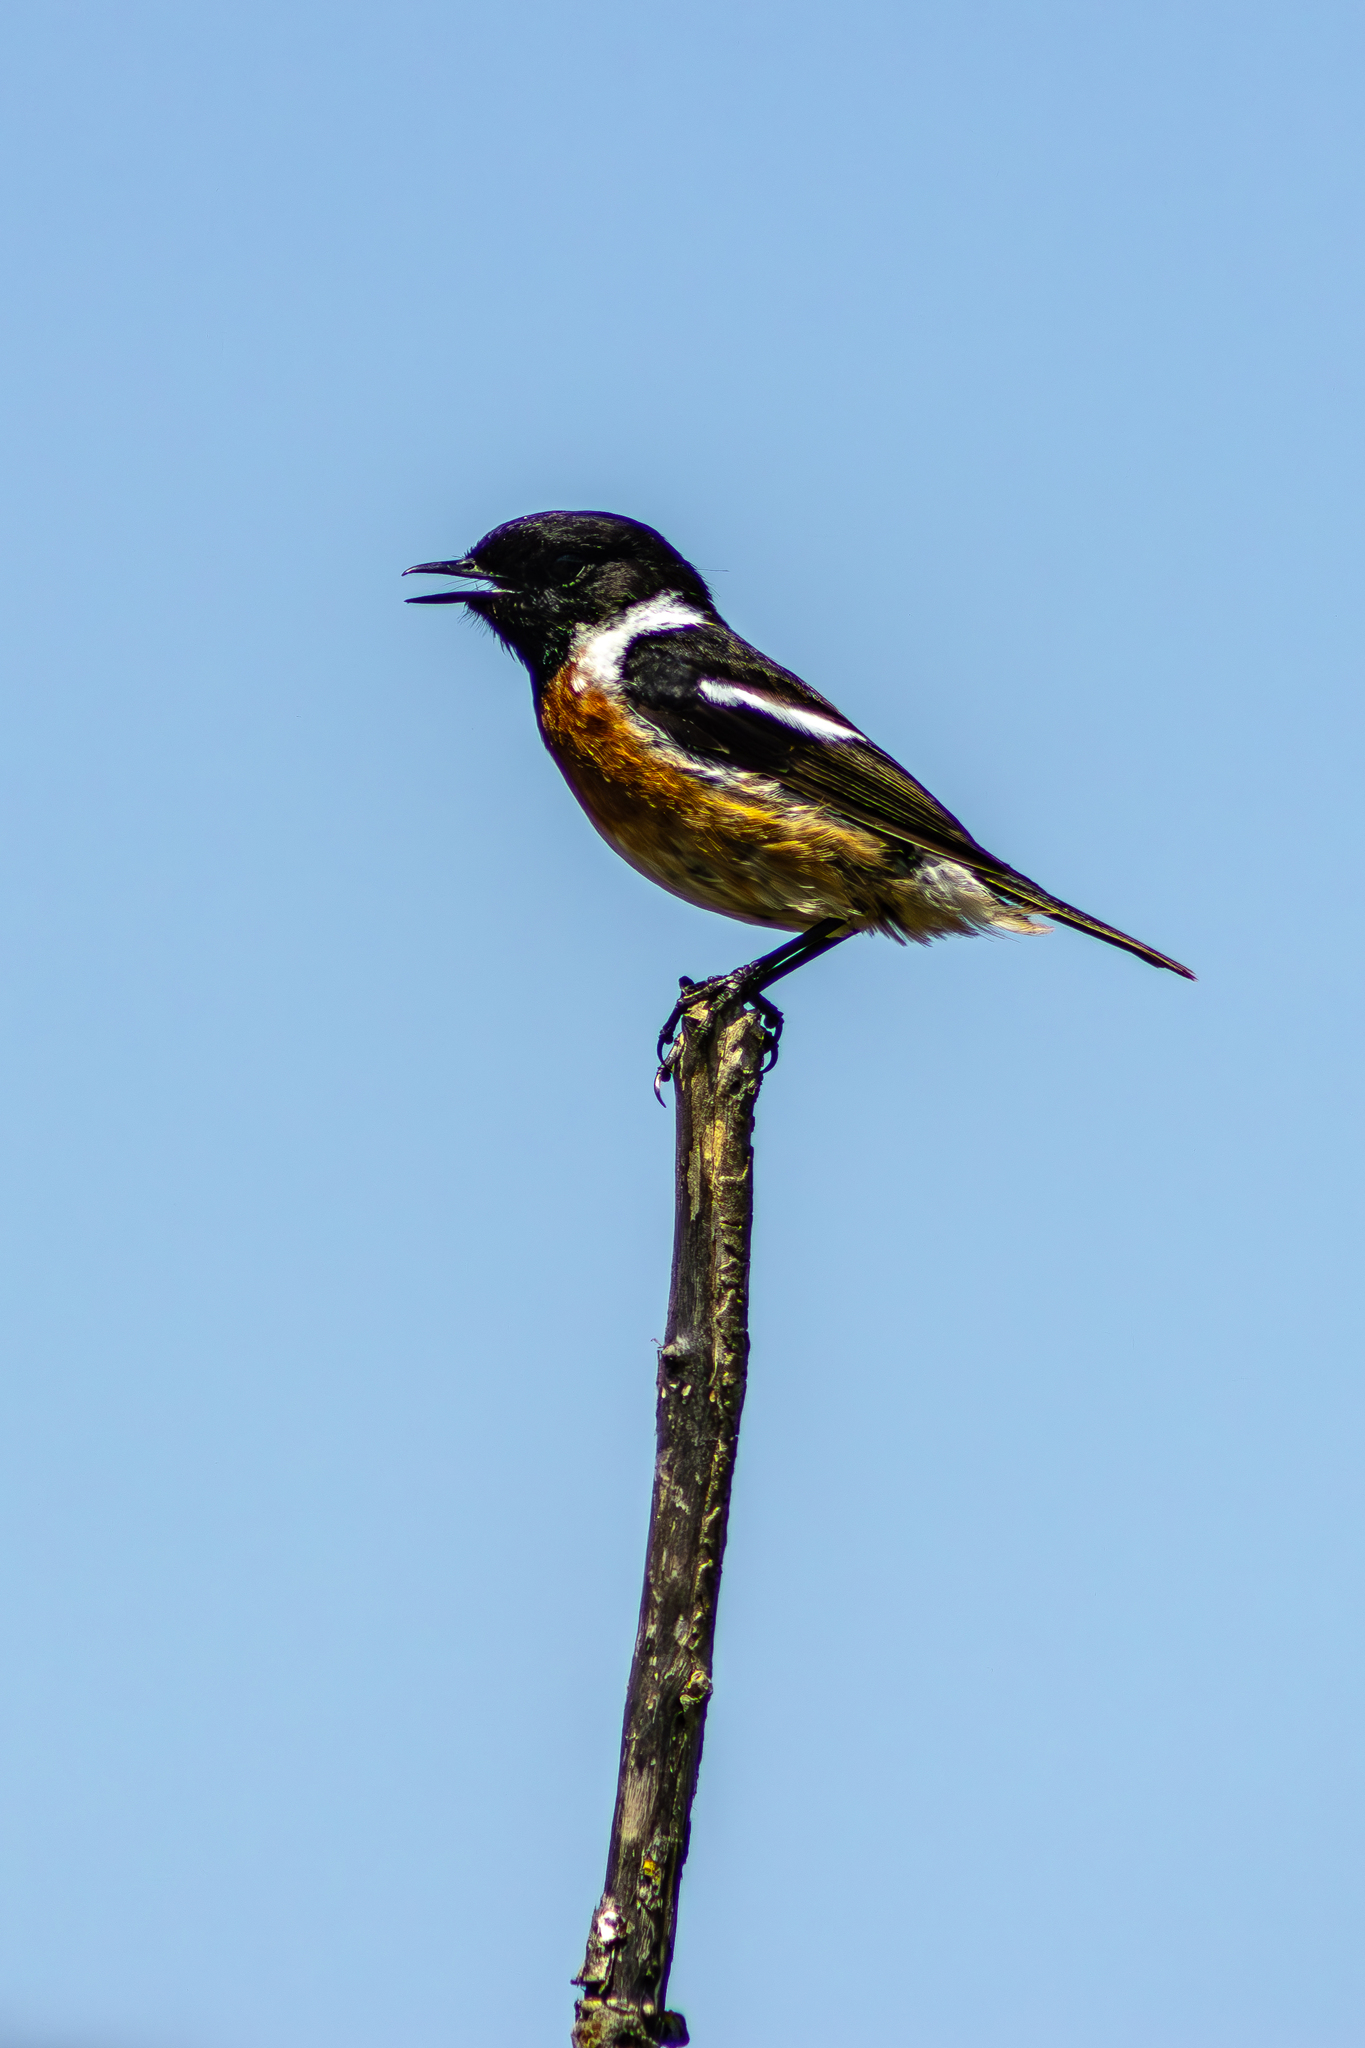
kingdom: Animalia
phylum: Chordata
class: Aves
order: Passeriformes
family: Muscicapidae
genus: Saxicola
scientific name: Saxicola rubicola
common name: European stonechat
